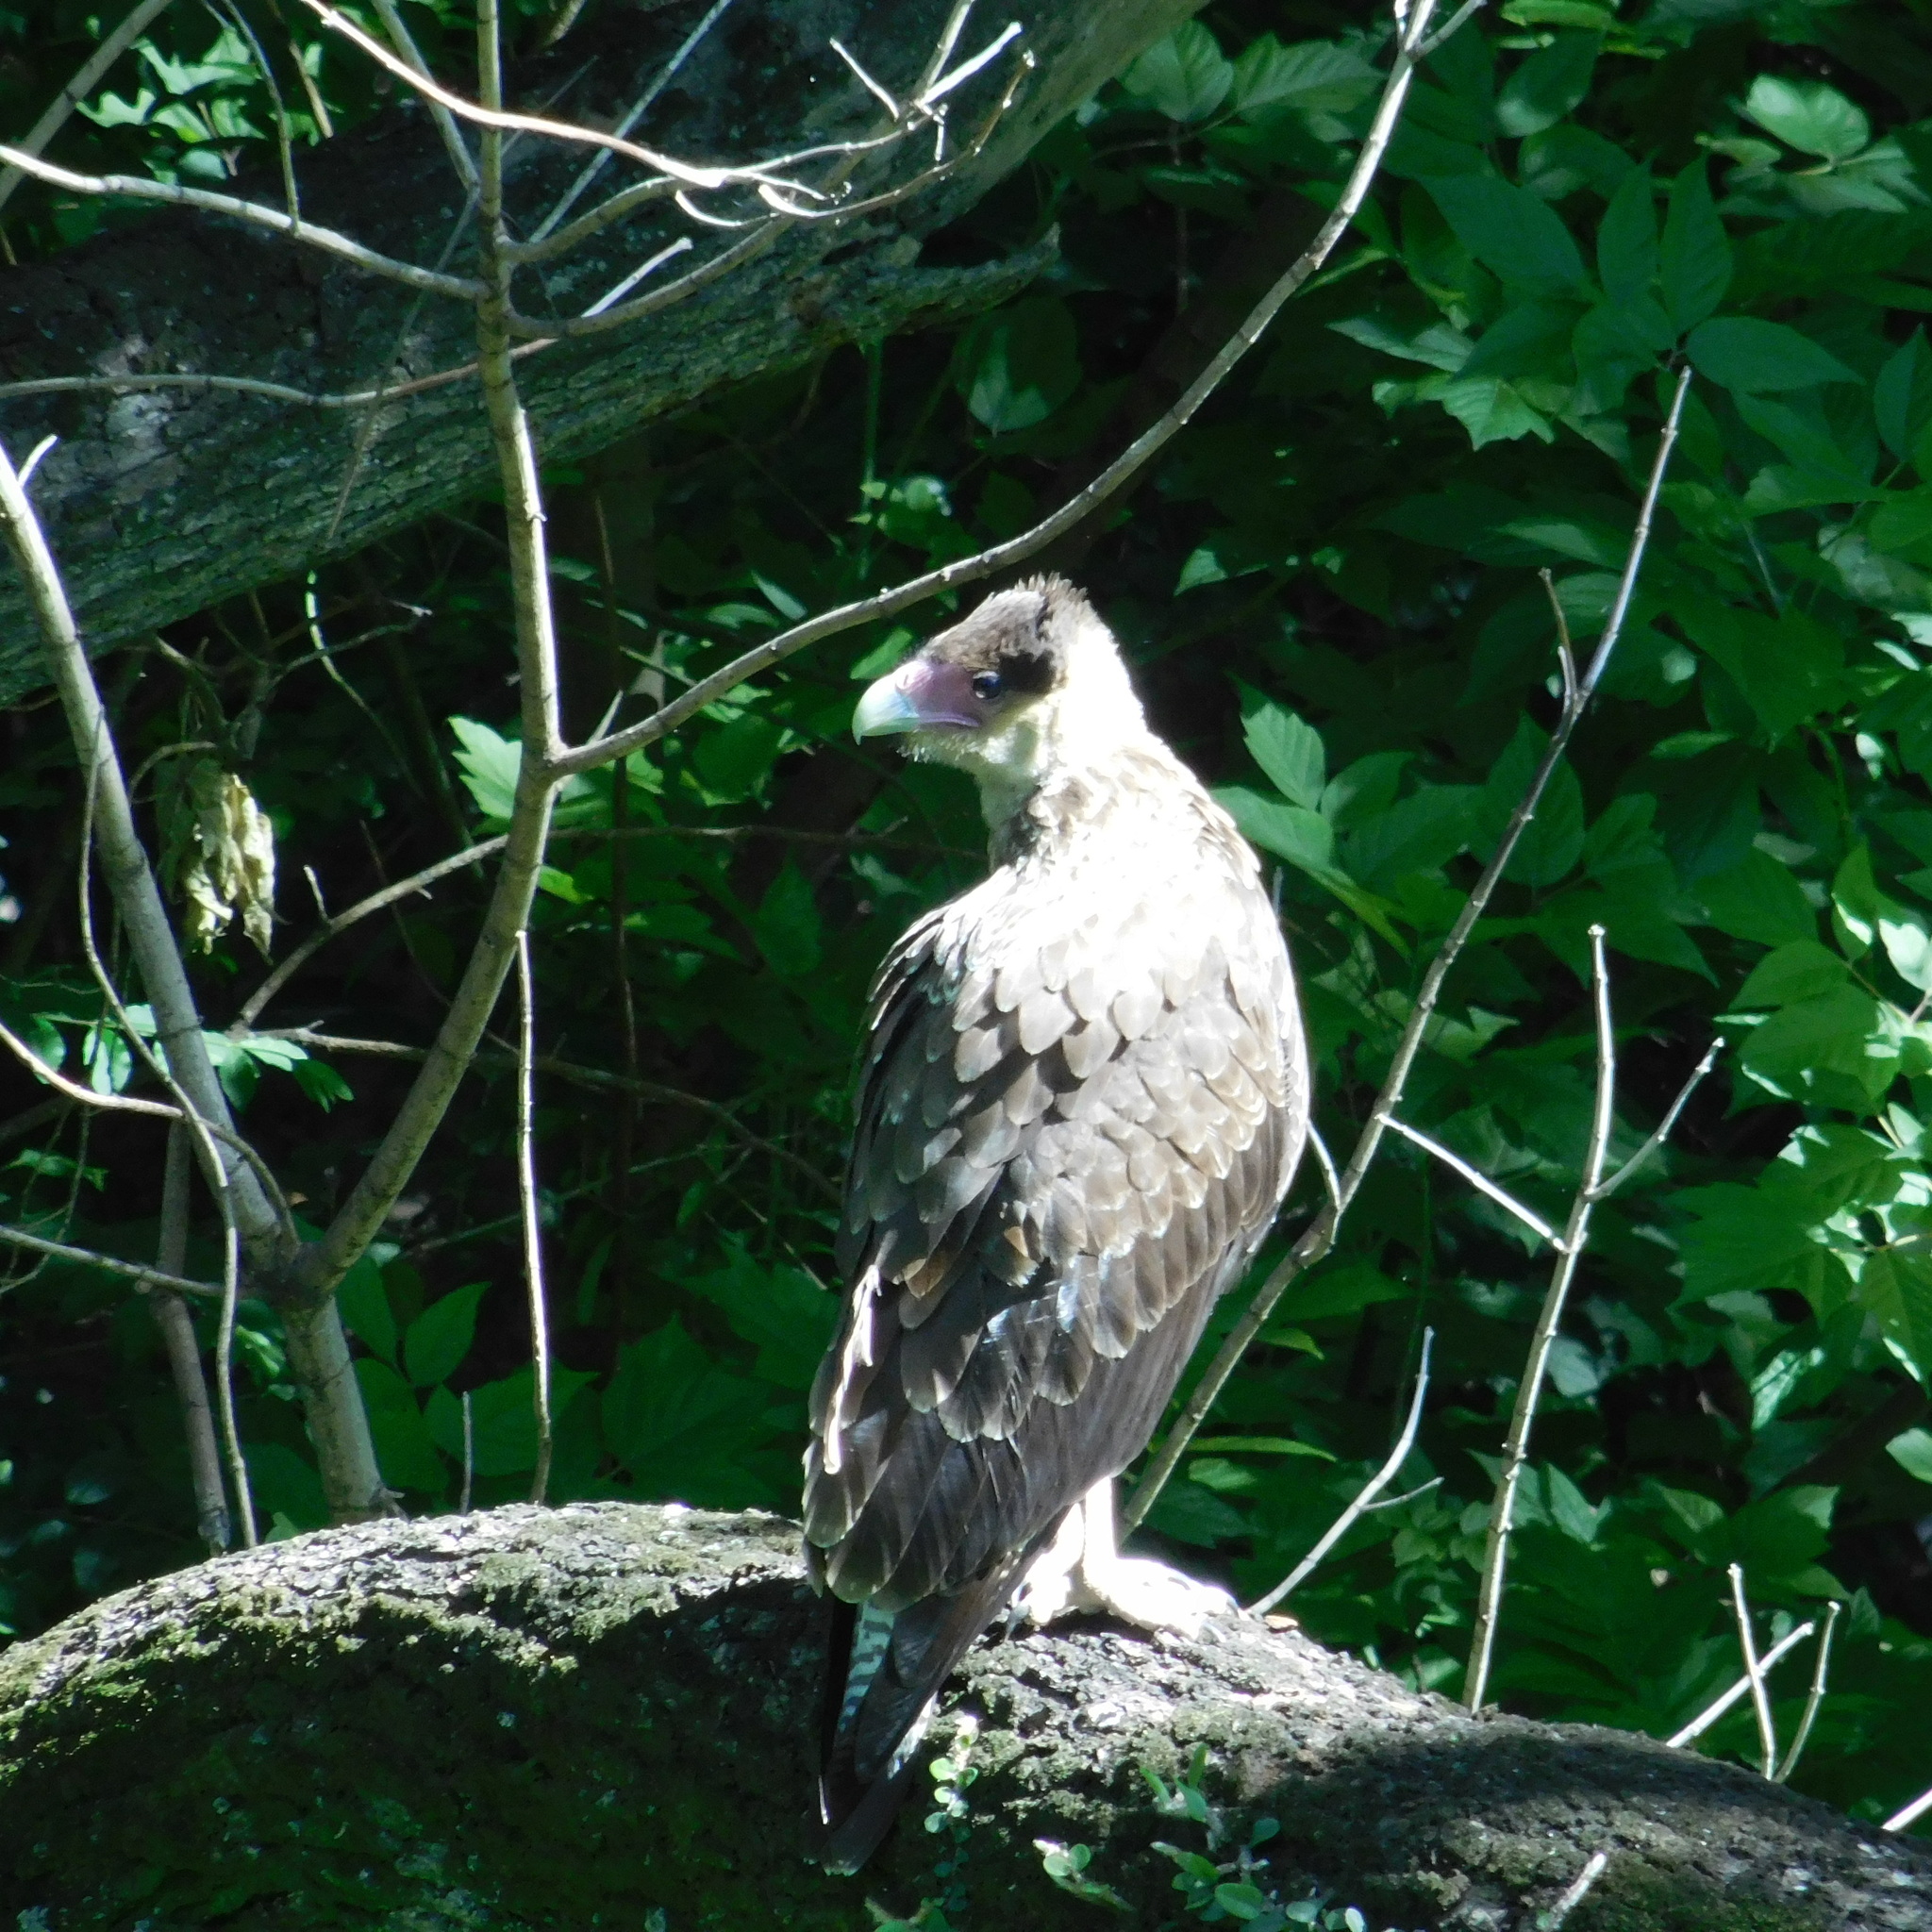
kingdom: Animalia
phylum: Chordata
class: Aves
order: Falconiformes
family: Falconidae
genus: Caracara
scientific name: Caracara plancus
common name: Southern caracara
